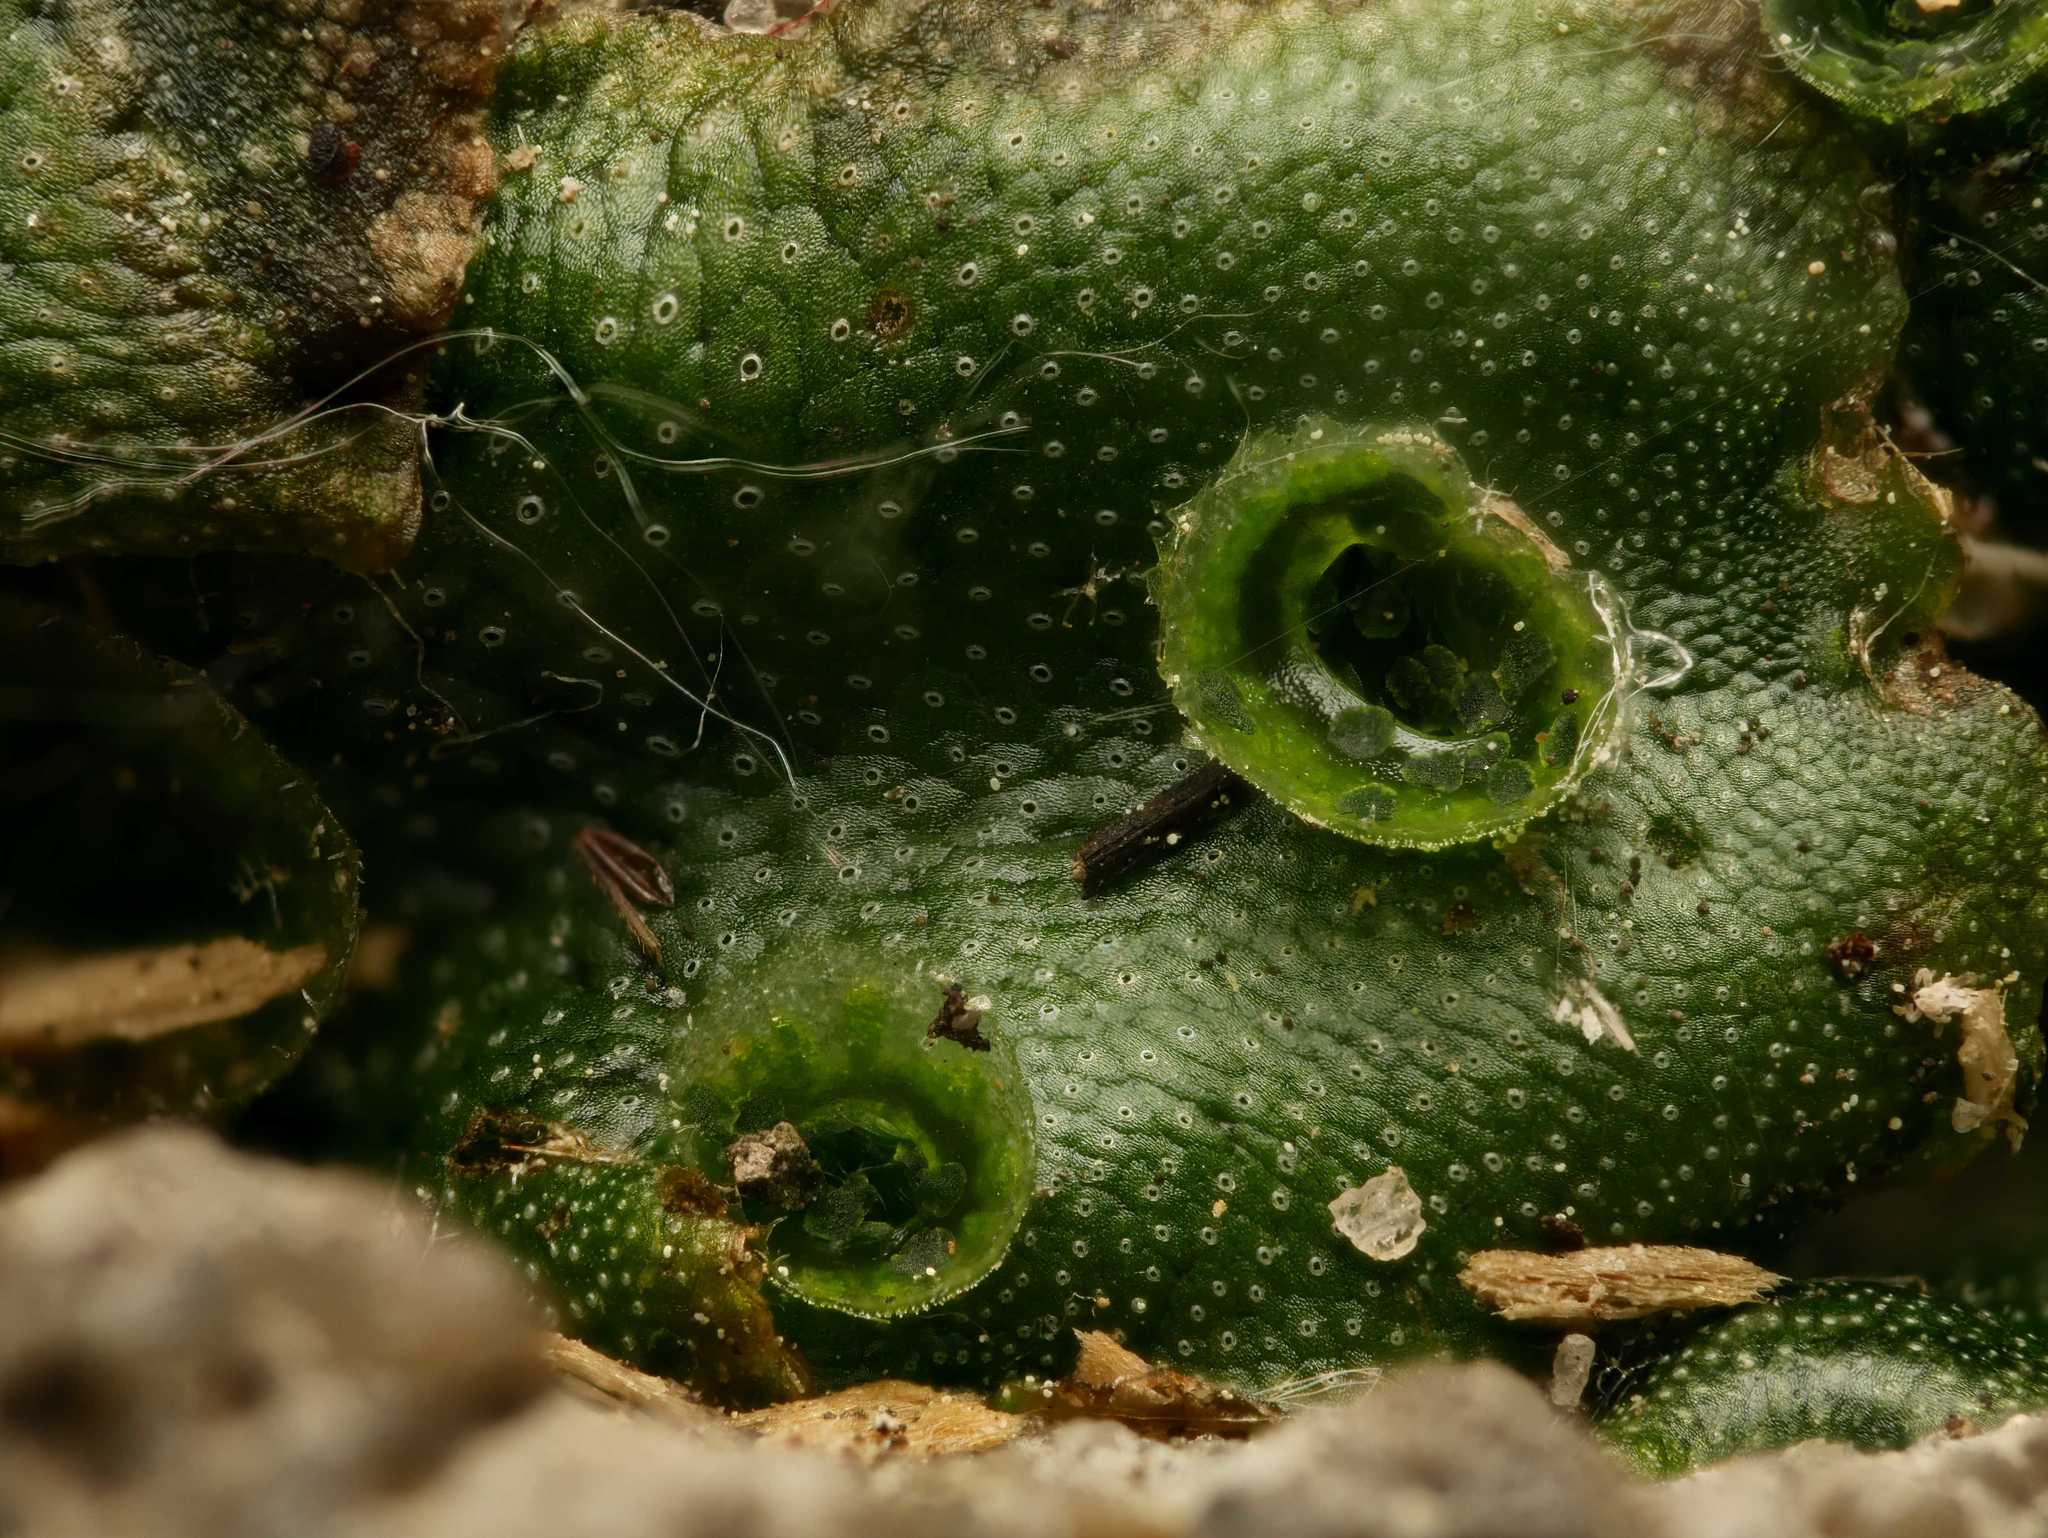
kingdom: Plantae
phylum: Marchantiophyta
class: Marchantiopsida
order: Marchantiales
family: Marchantiaceae
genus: Marchantia
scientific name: Marchantia polymorpha
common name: Common liverwort
